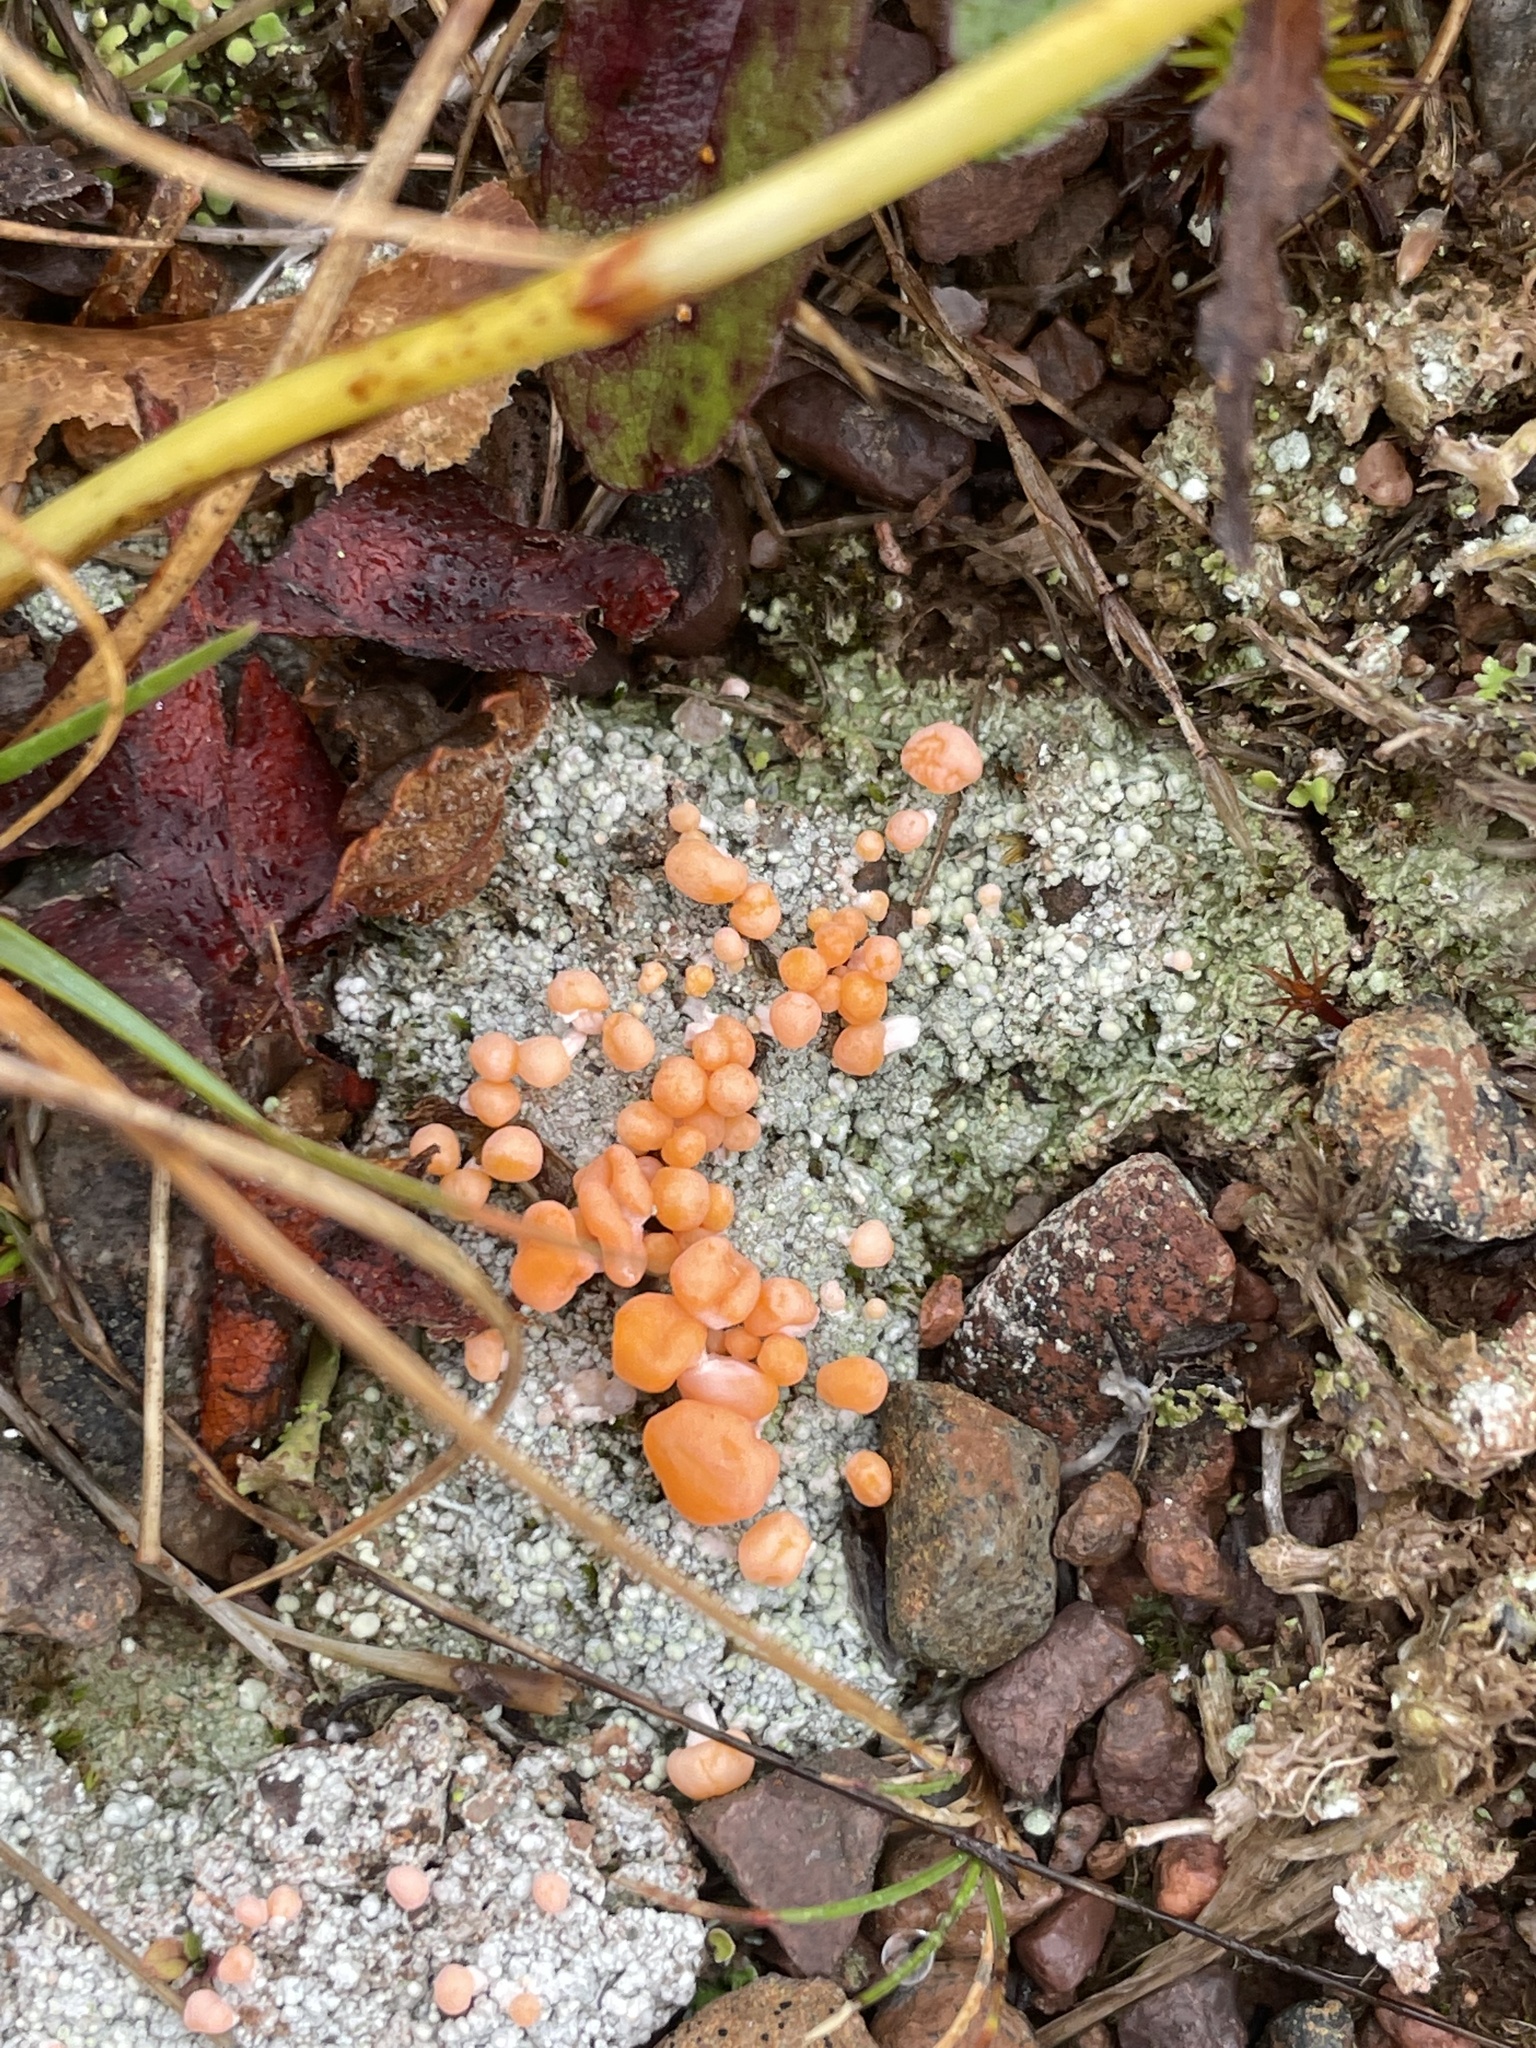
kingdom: Fungi
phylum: Ascomycota
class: Lecanoromycetes
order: Pertusariales
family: Icmadophilaceae
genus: Dibaeis
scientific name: Dibaeis baeomyces
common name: Pink earth lichen
